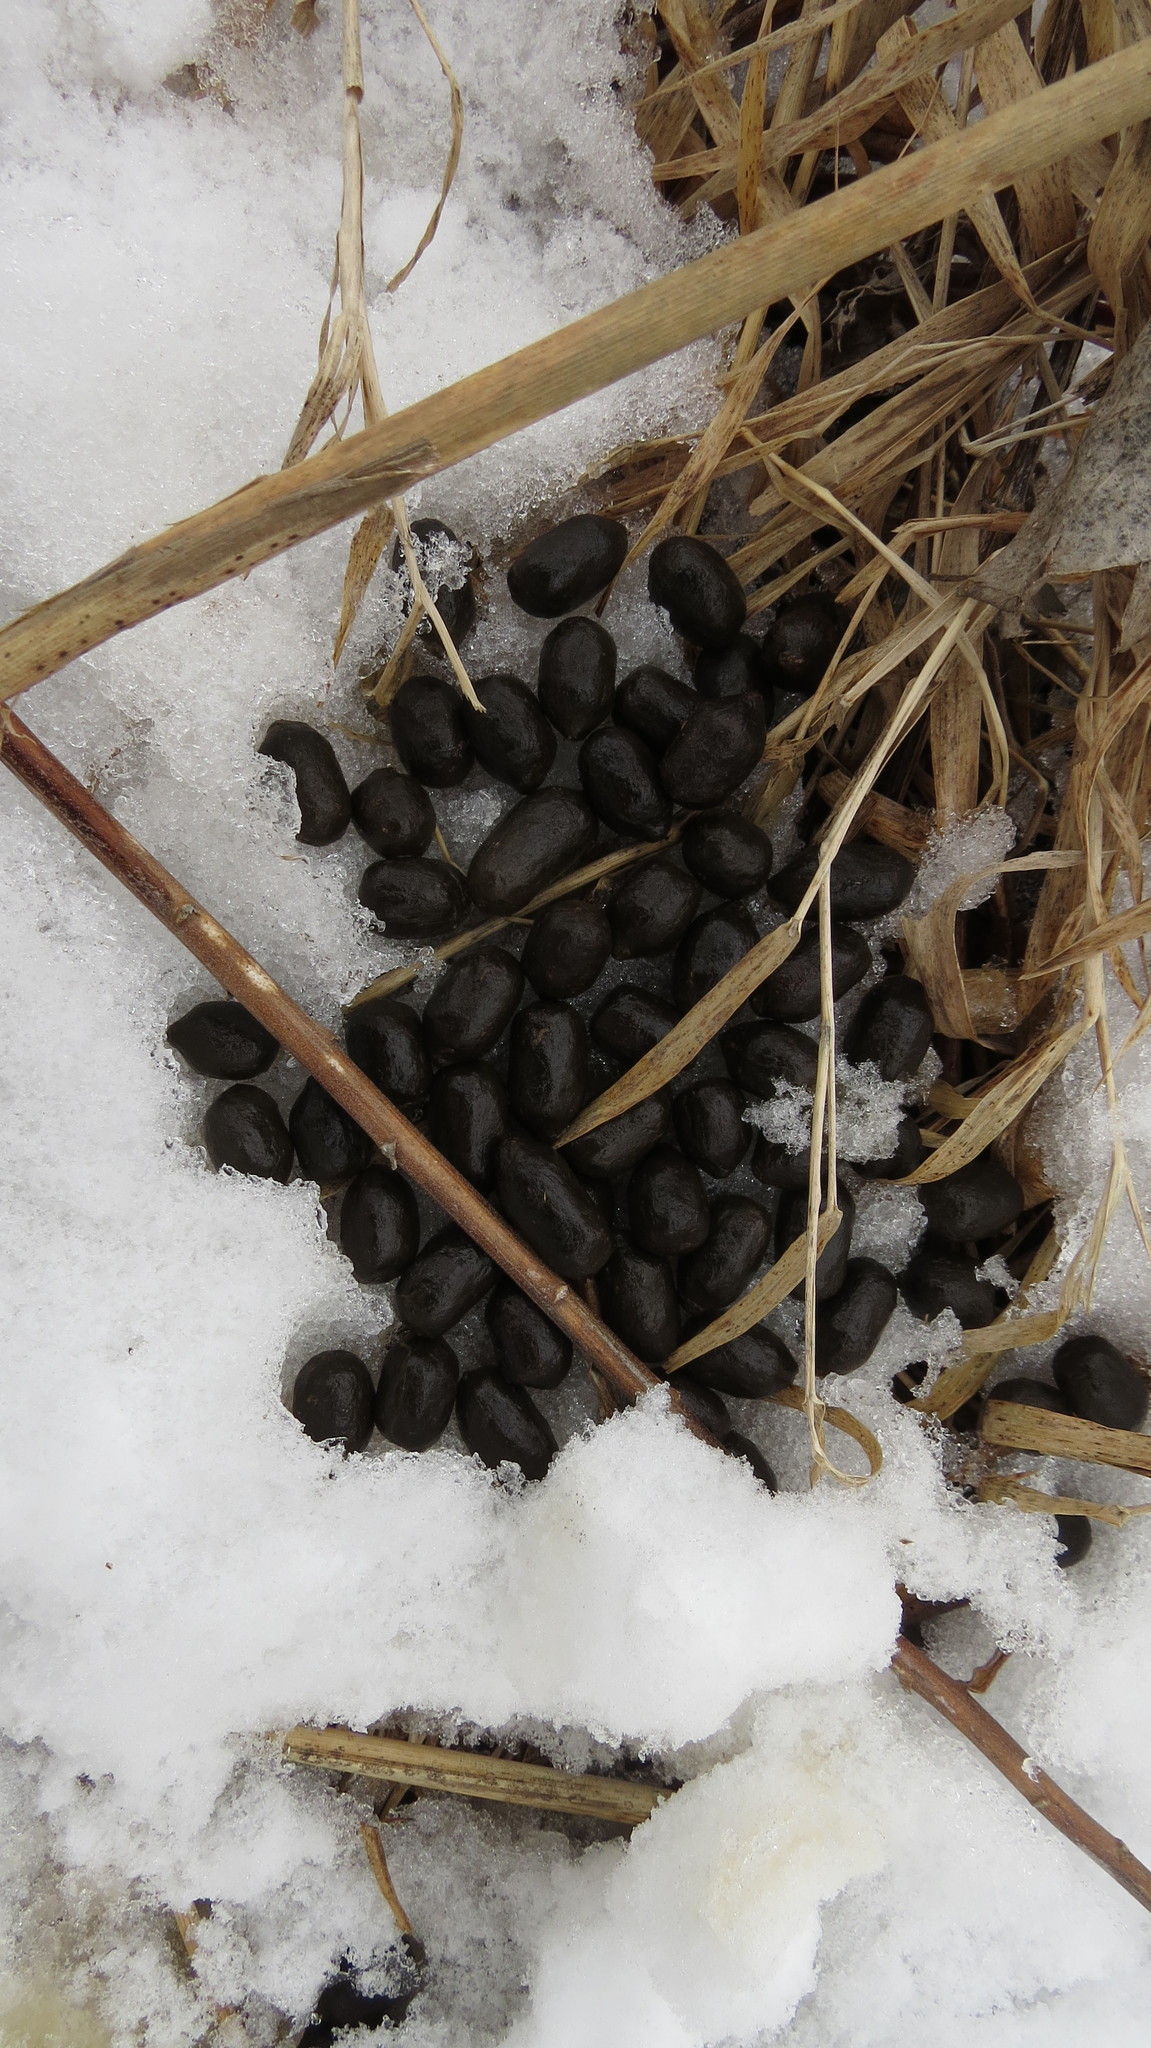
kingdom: Animalia
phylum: Chordata
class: Mammalia
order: Artiodactyla
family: Cervidae
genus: Odocoileus
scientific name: Odocoileus virginianus
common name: White-tailed deer
